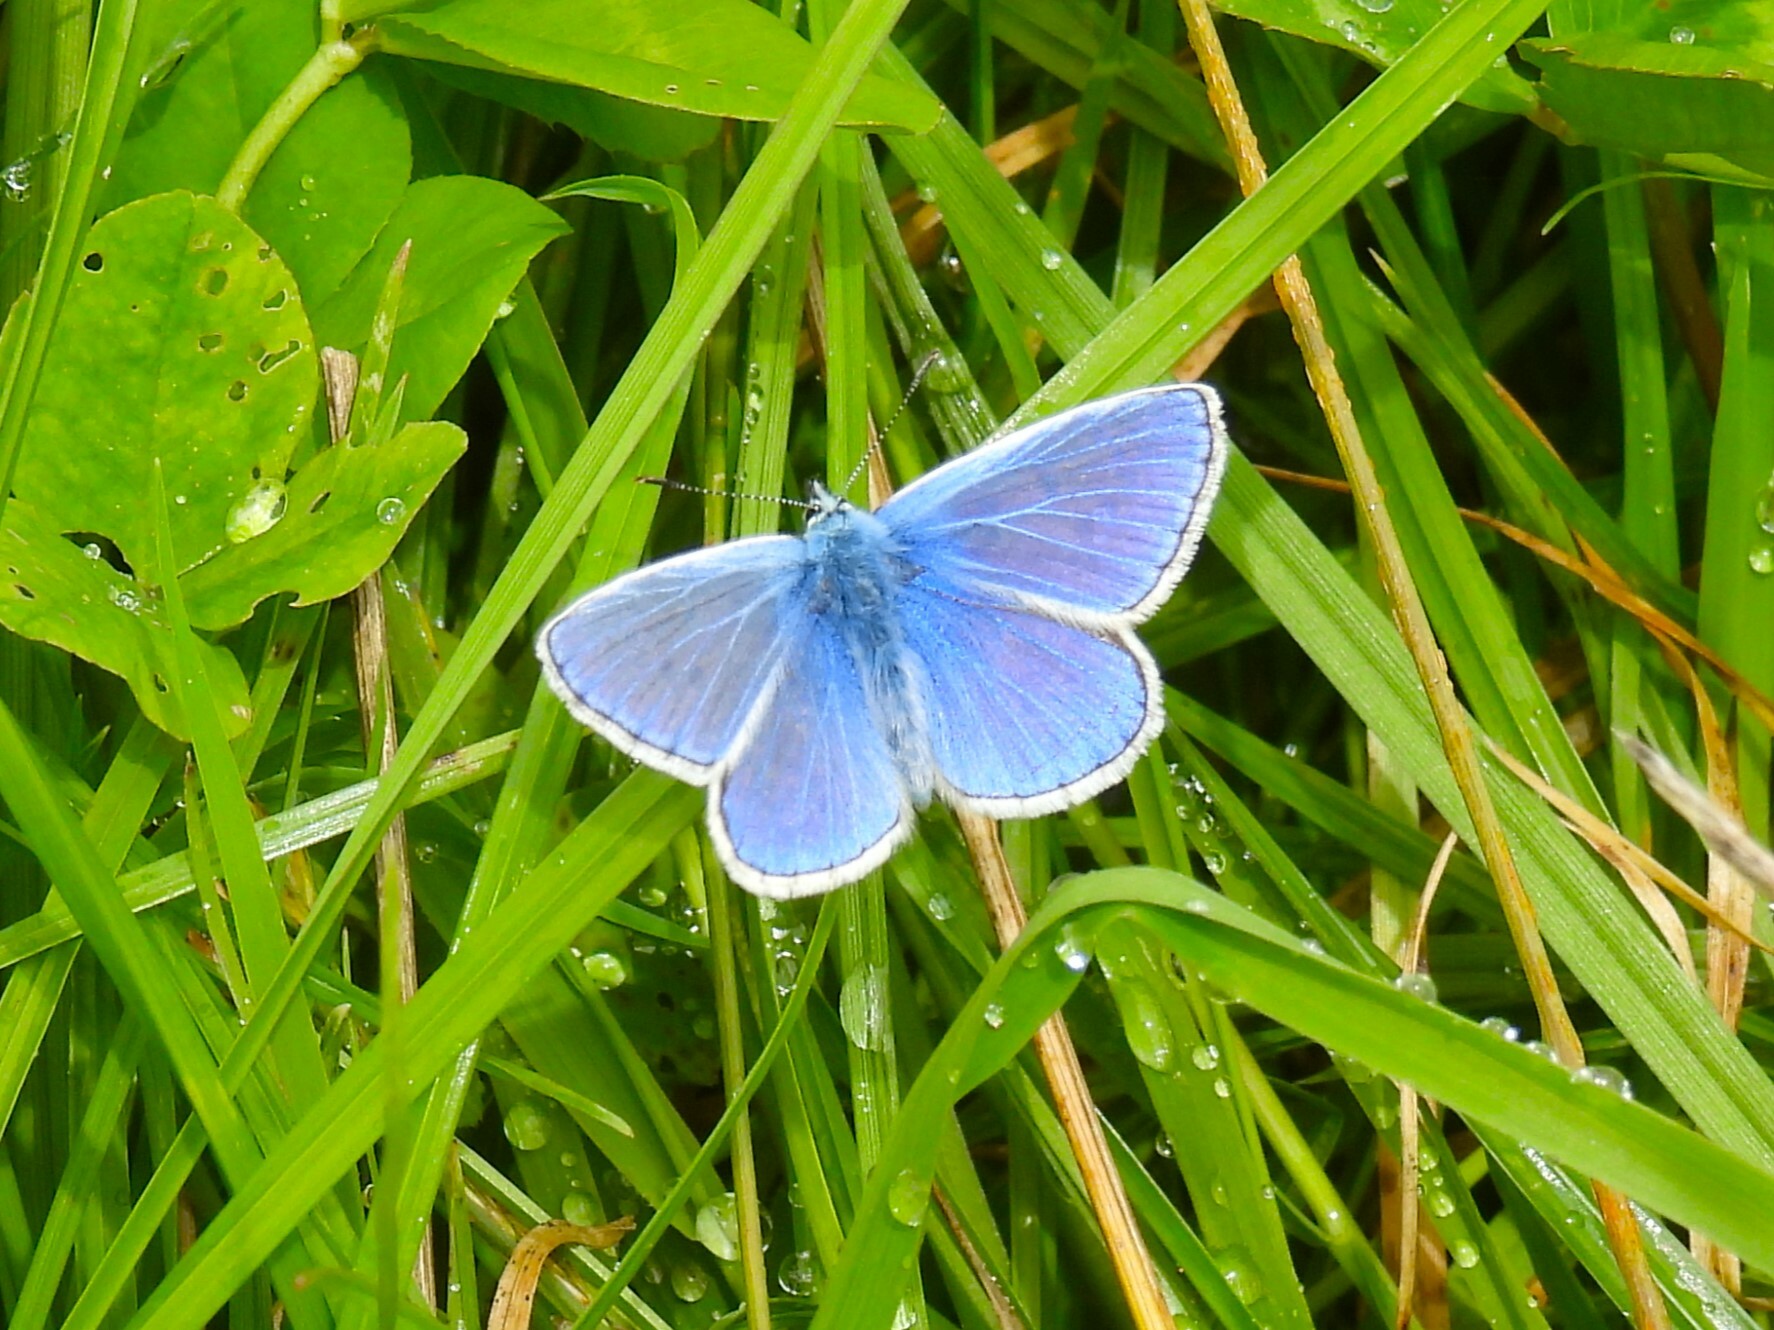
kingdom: Animalia
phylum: Arthropoda
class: Insecta
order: Lepidoptera
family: Lycaenidae
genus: Polyommatus
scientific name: Polyommatus icarus
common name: Common blue
